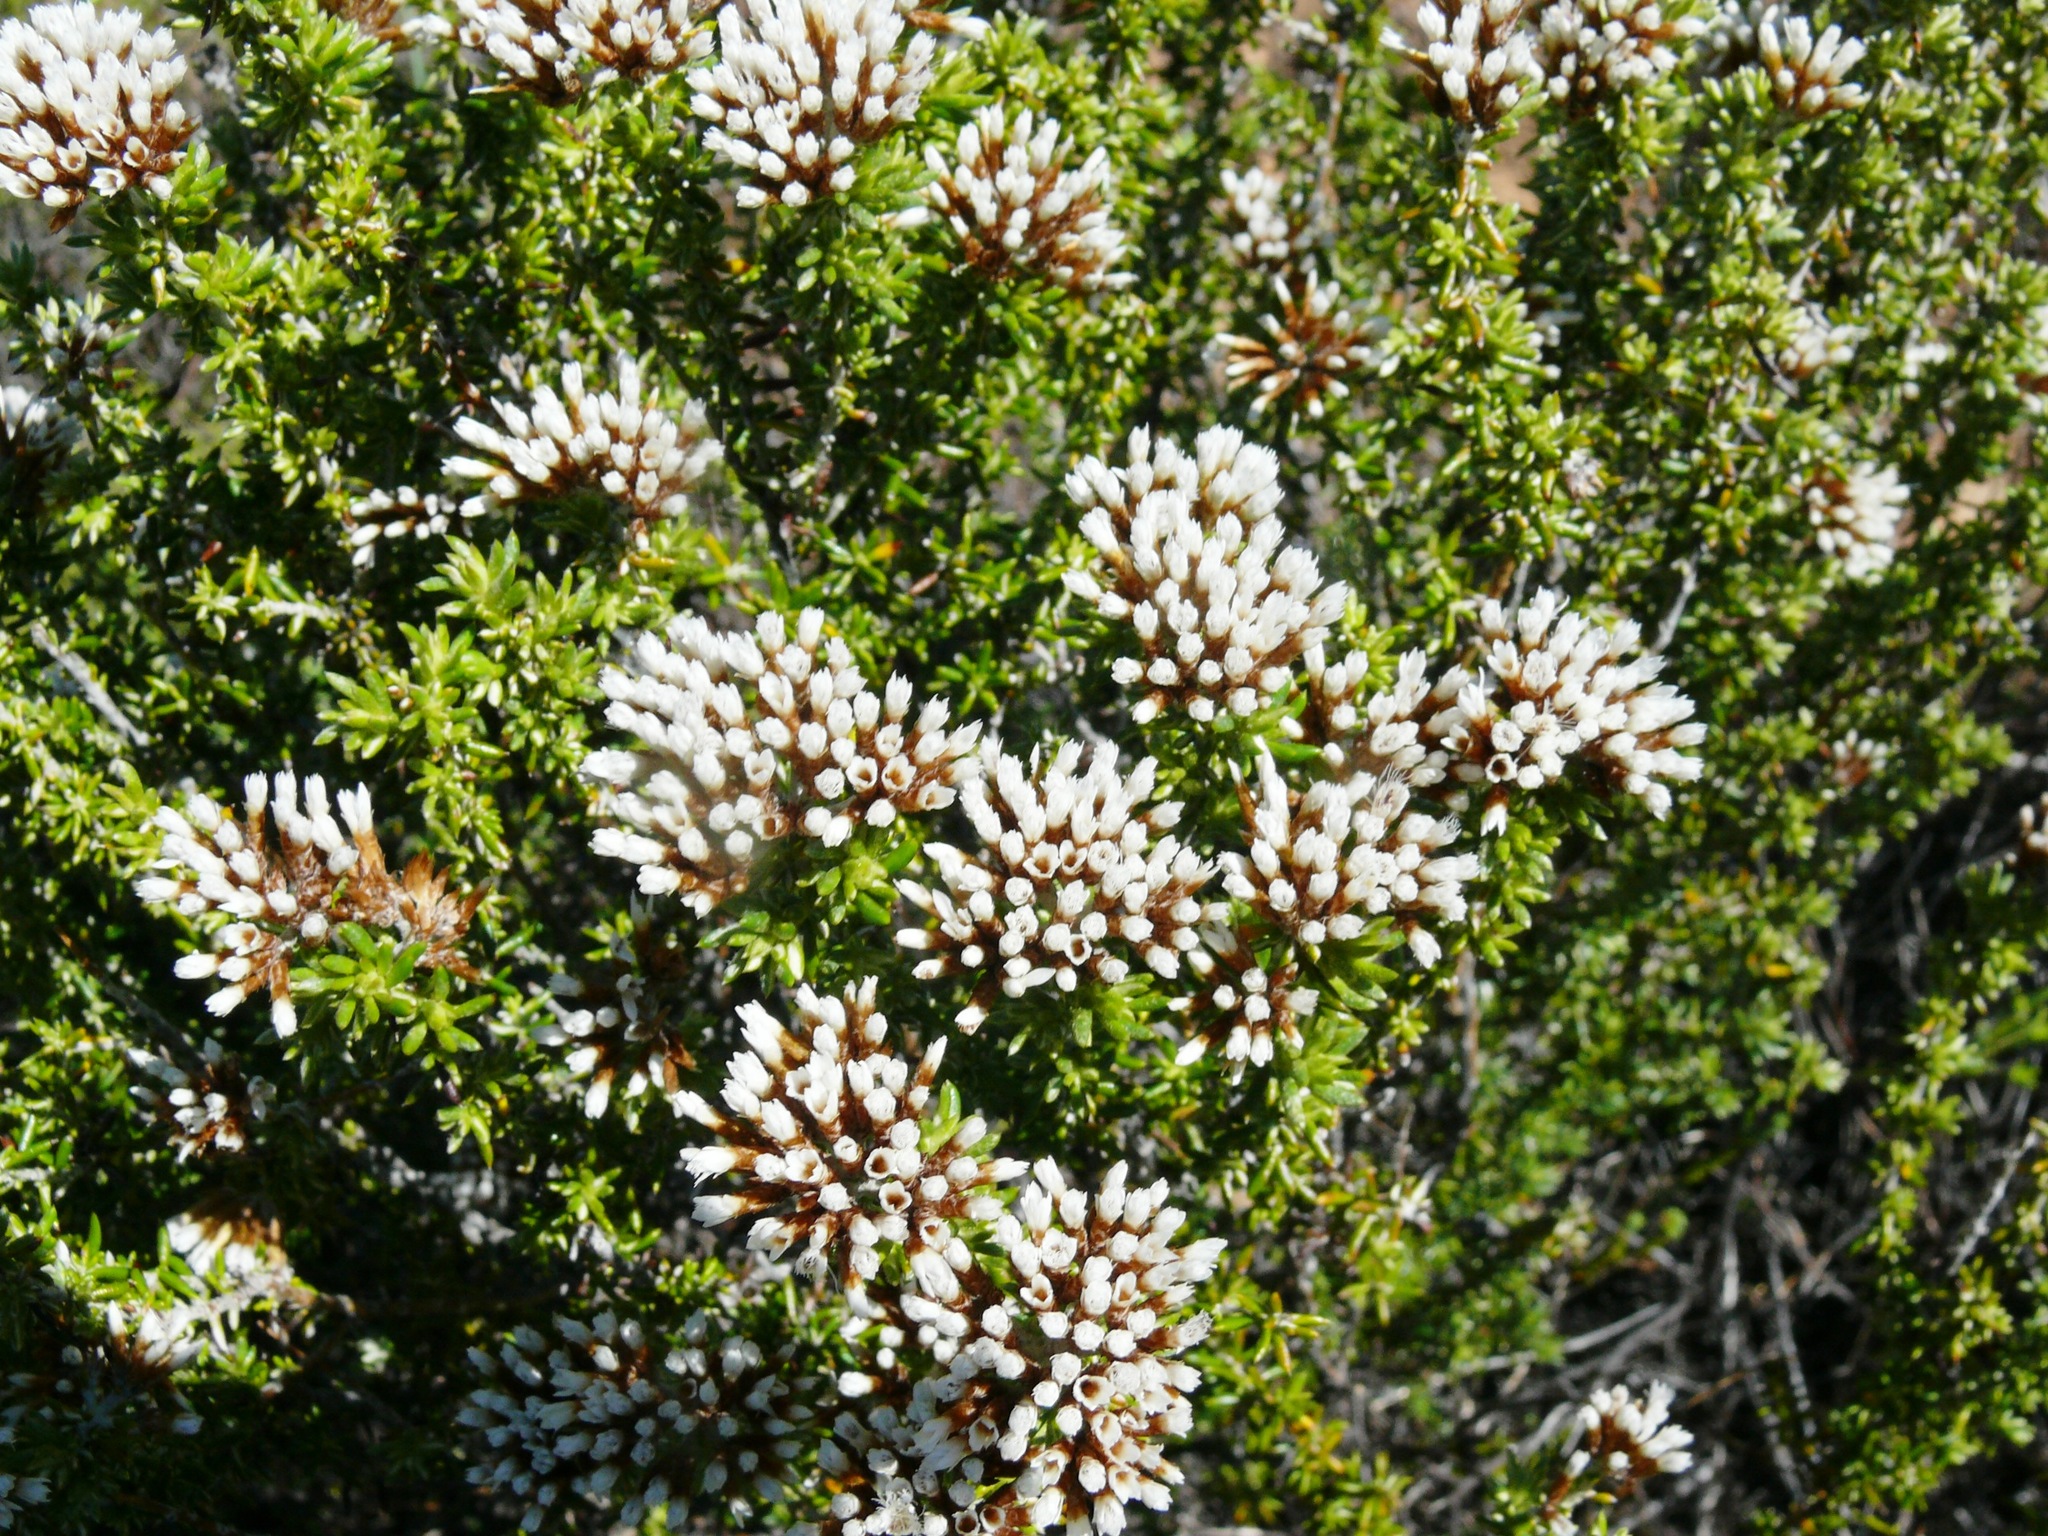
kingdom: Plantae
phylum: Tracheophyta
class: Magnoliopsida
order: Asterales
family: Asteraceae
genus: Metalasia
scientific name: Metalasia densa
